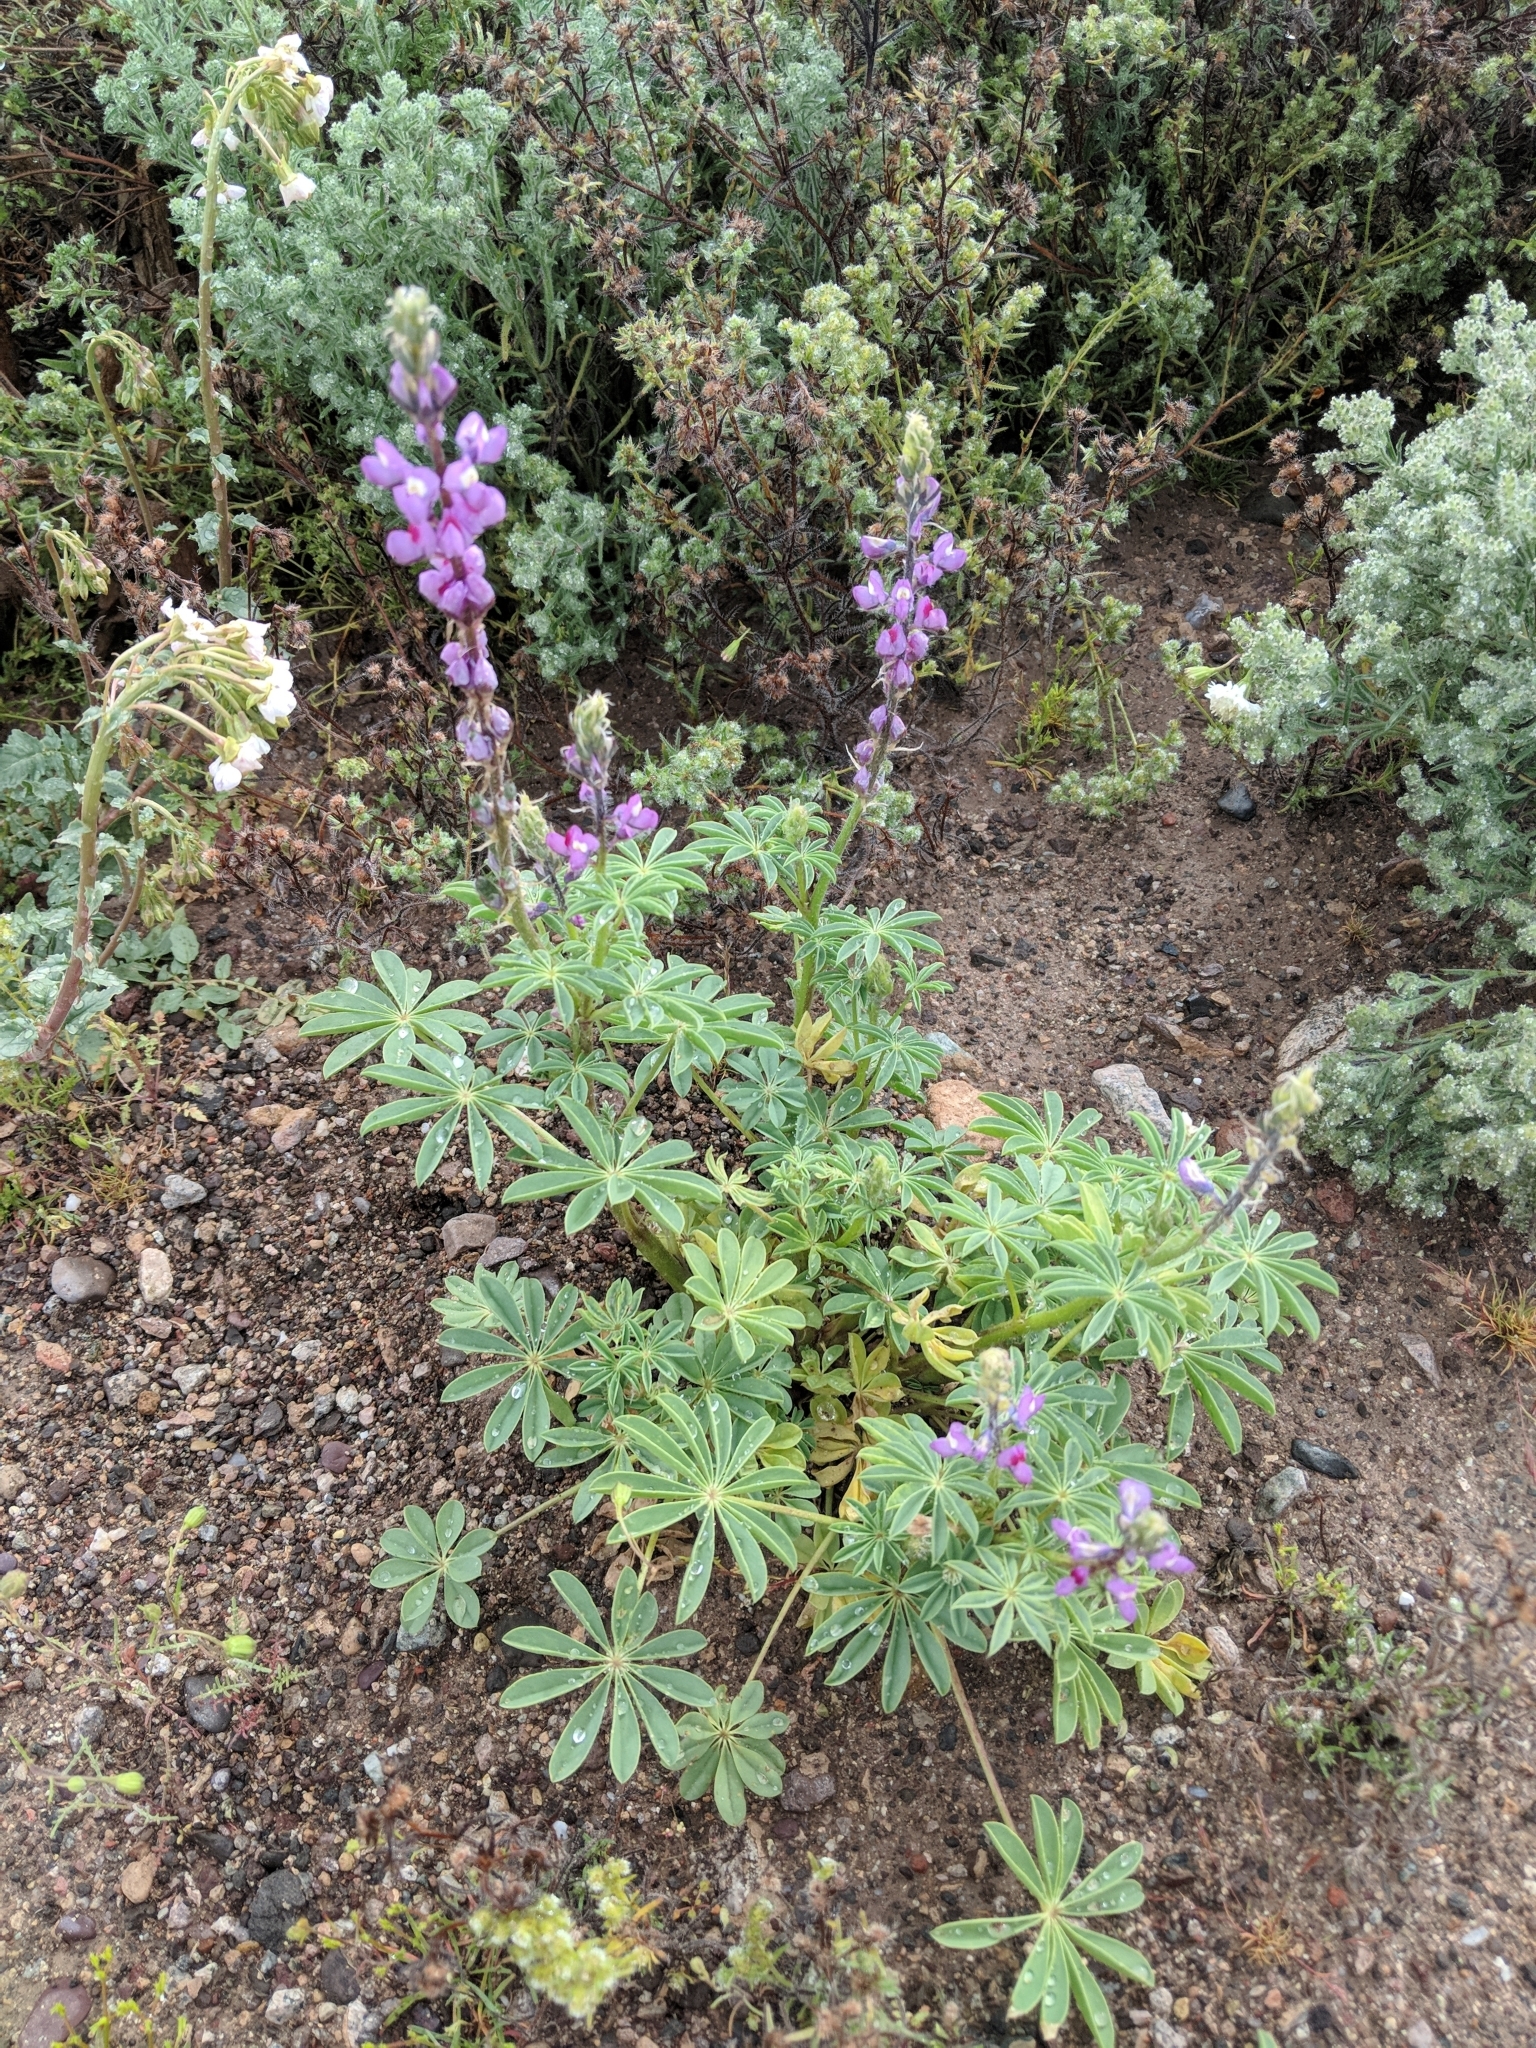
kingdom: Plantae
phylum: Tracheophyta
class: Magnoliopsida
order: Fabales
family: Fabaceae
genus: Lupinus
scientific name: Lupinus arizonicus
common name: Arizona lupine
